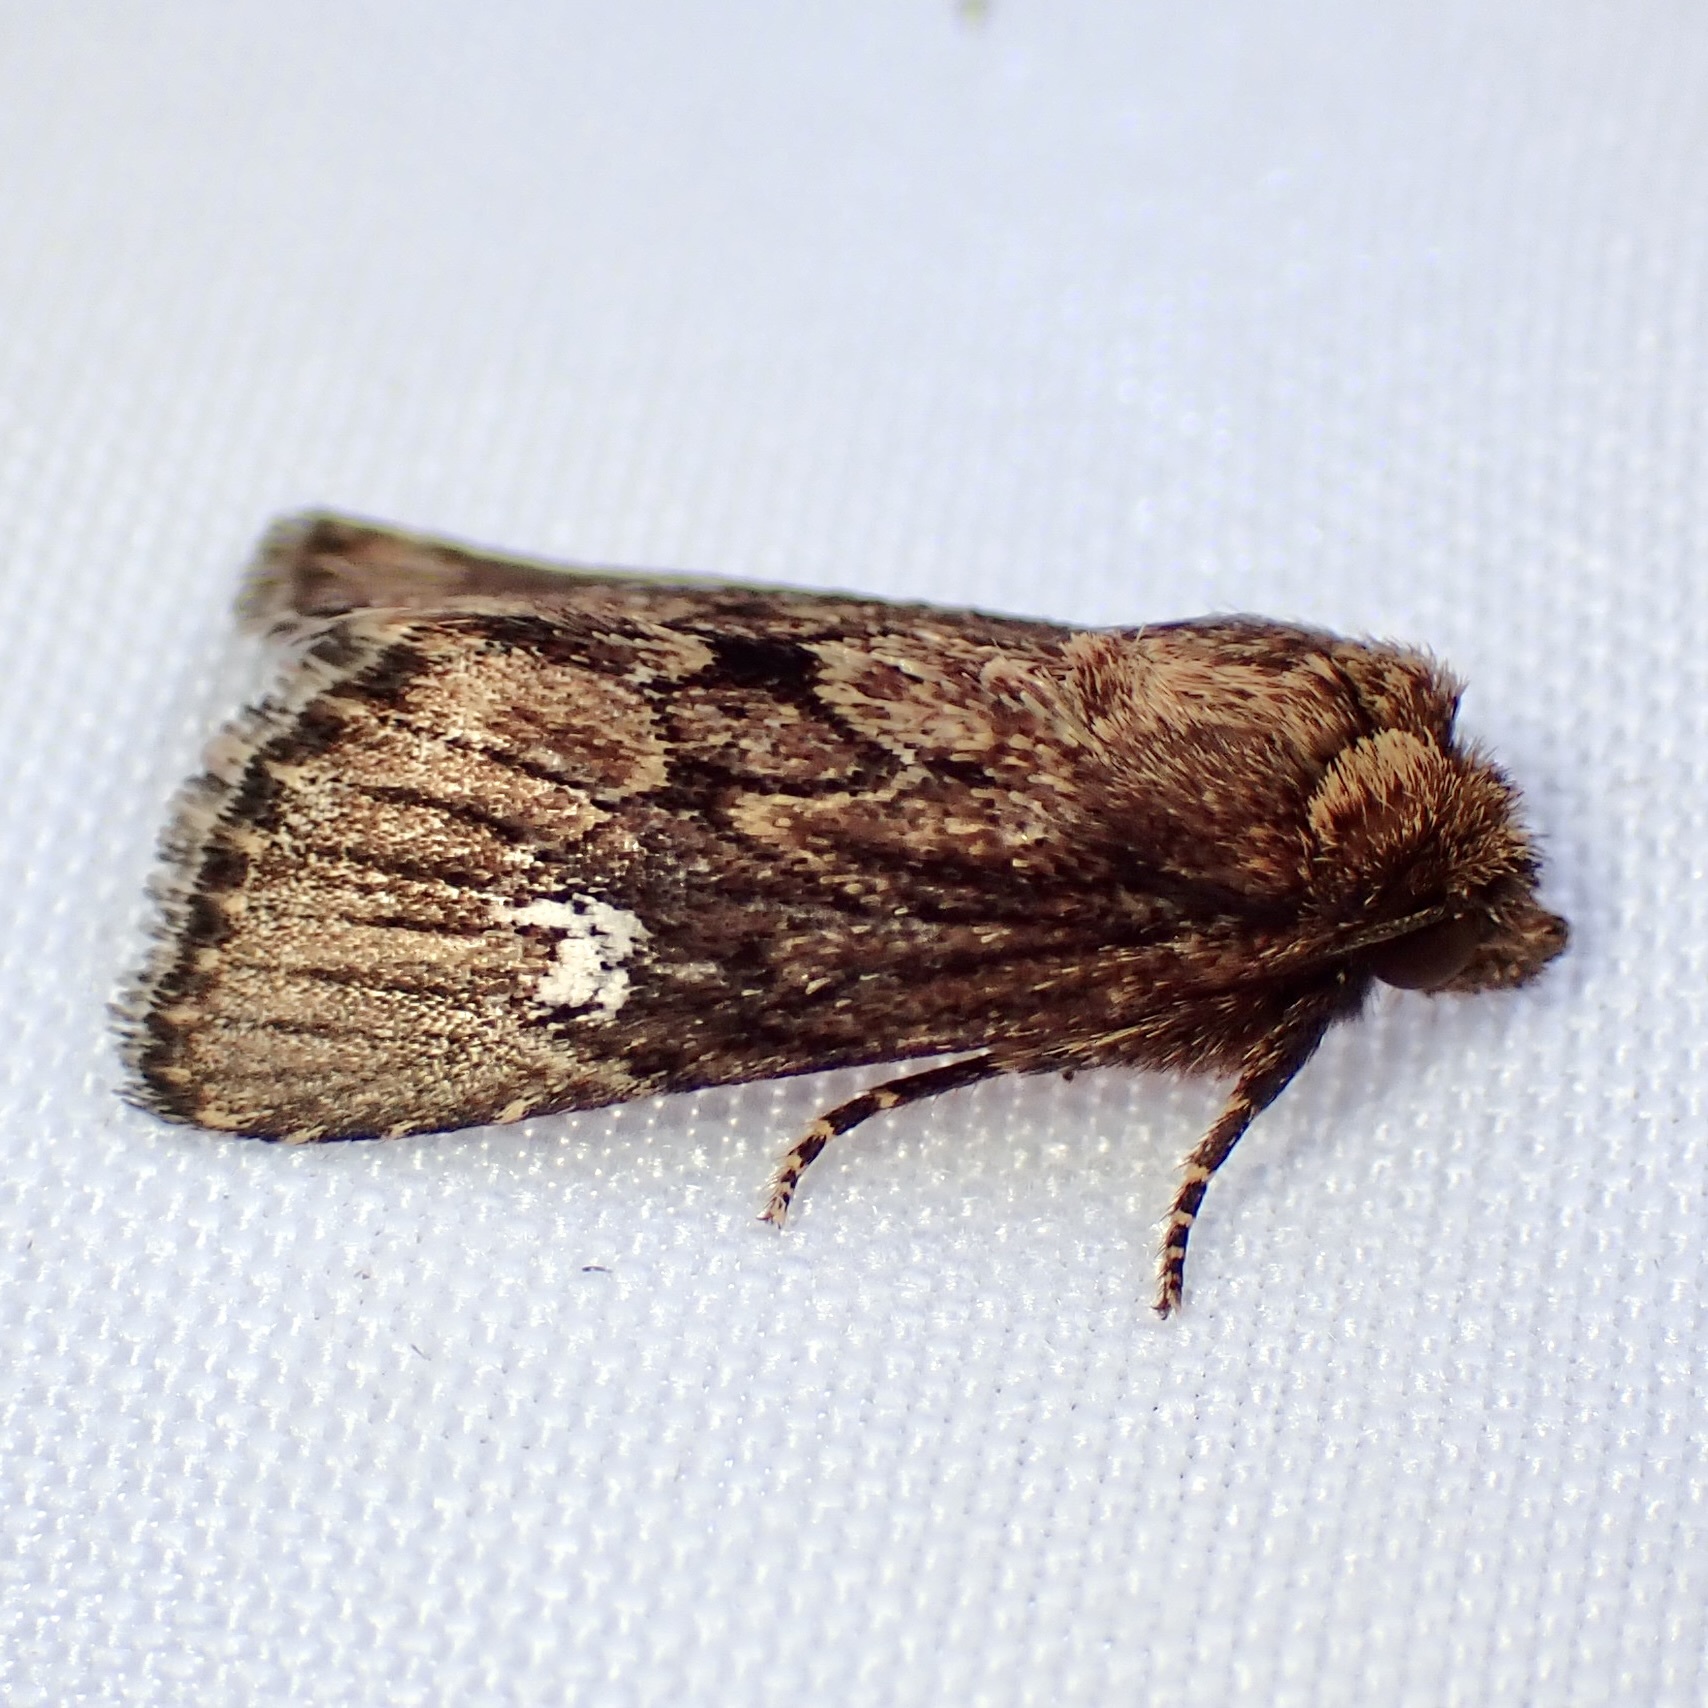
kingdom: Animalia
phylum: Arthropoda
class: Insecta
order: Lepidoptera
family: Noctuidae
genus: Properigea
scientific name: Properigea loculosa
